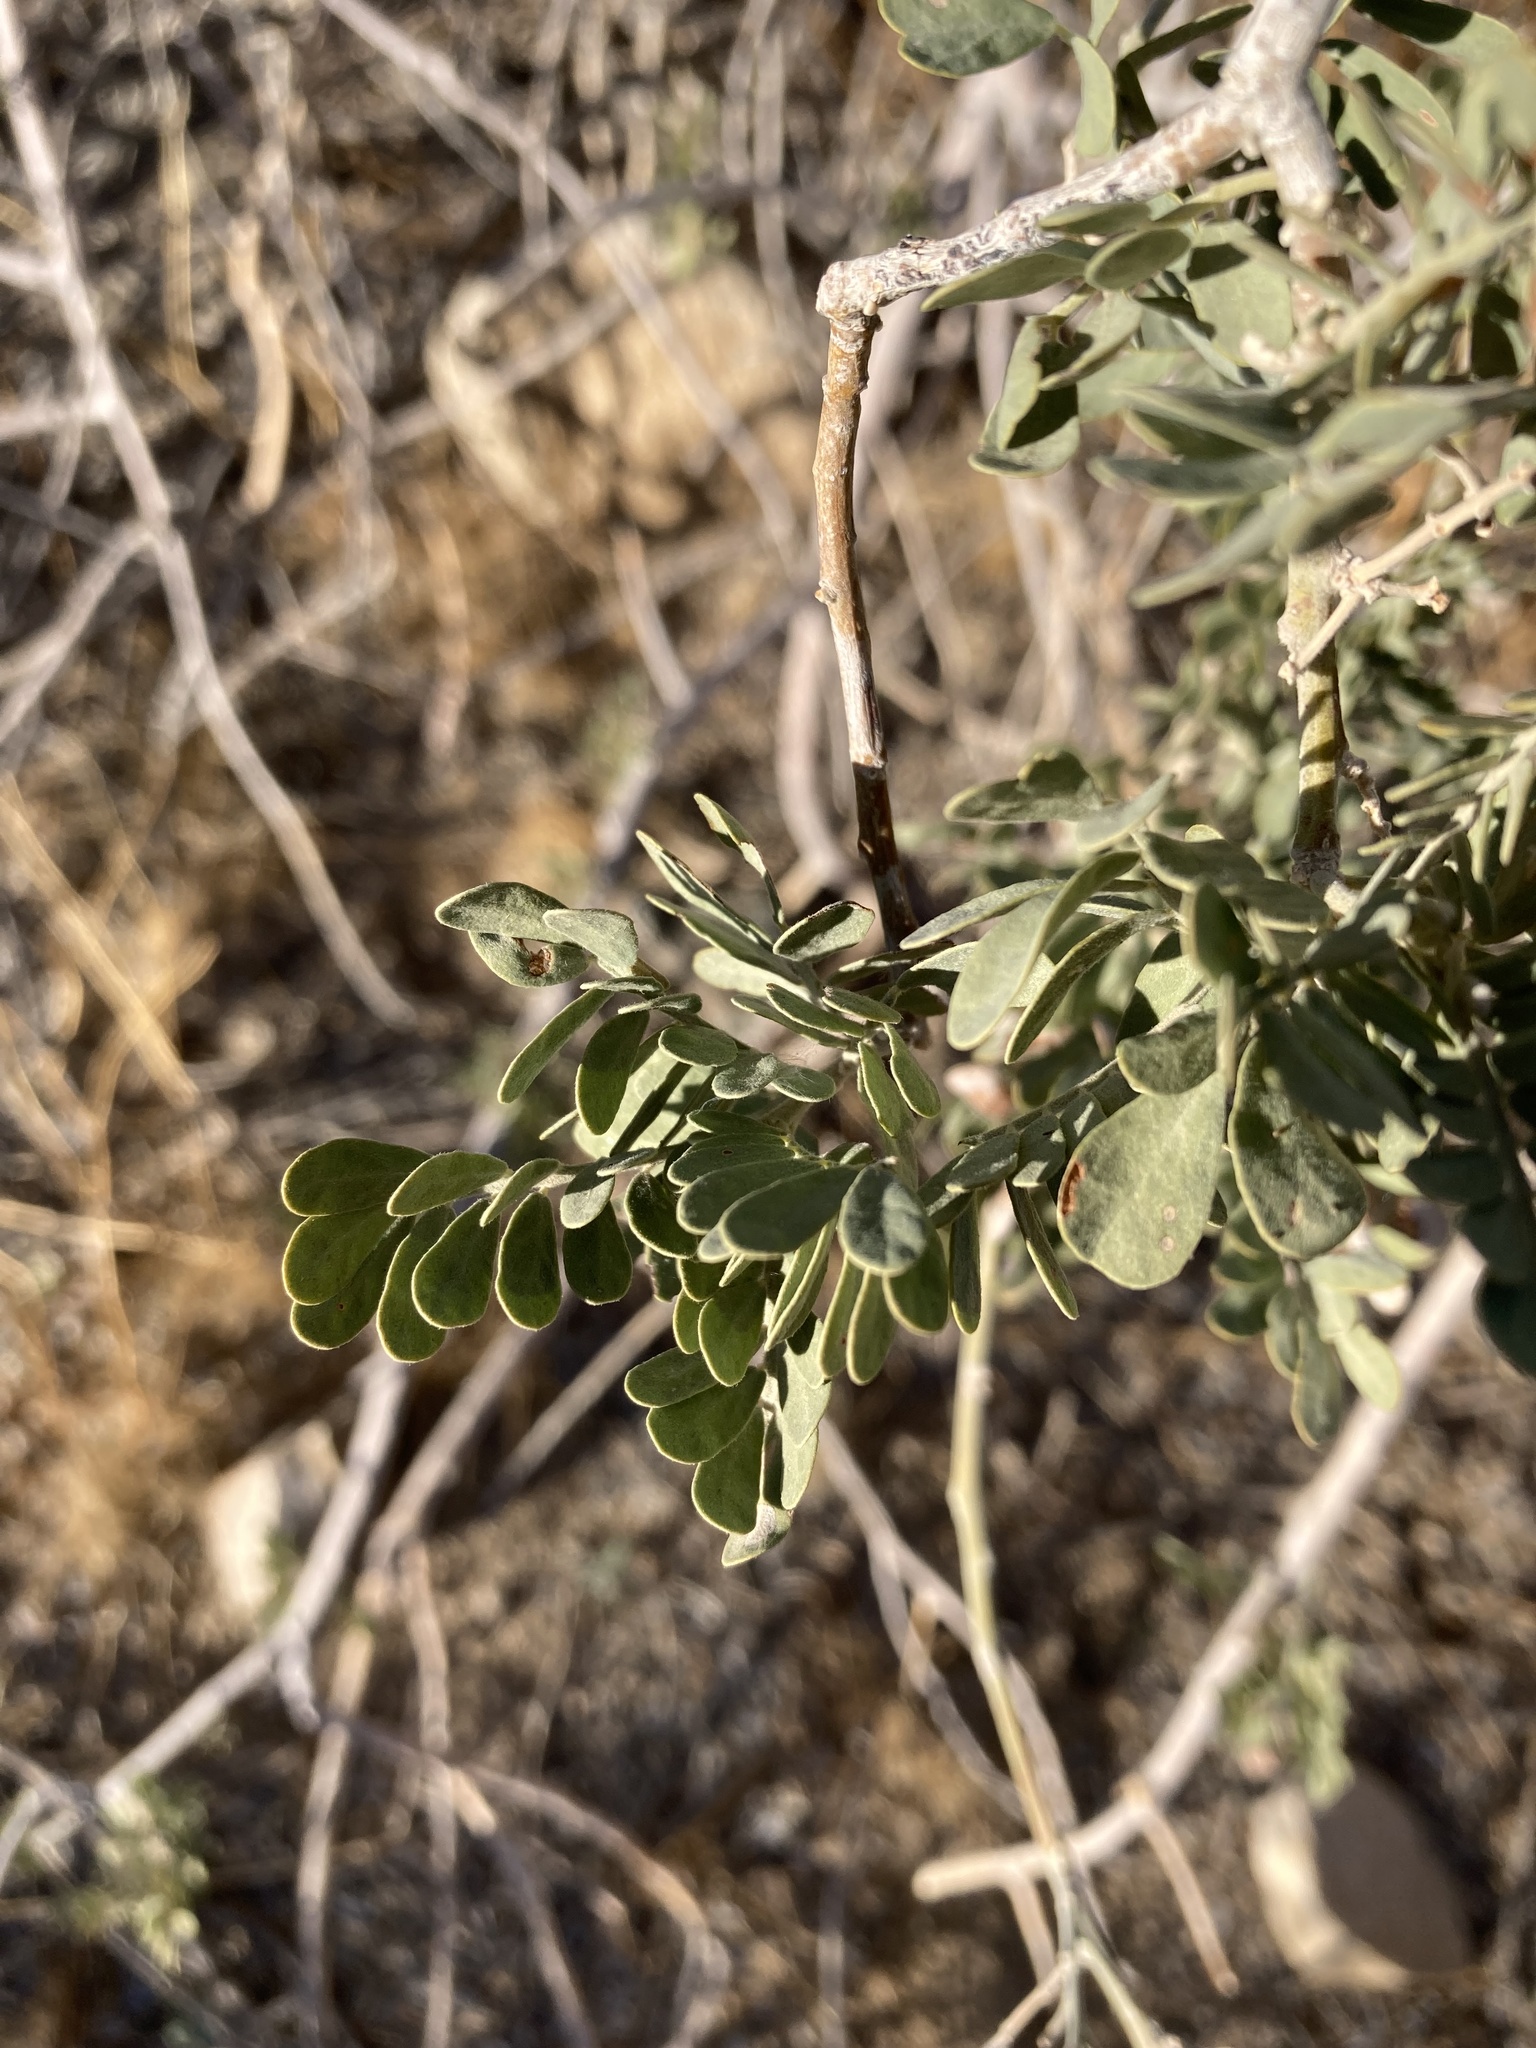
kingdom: Plantae
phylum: Tracheophyta
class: Magnoliopsida
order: Fabales
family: Fabaceae
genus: Olneya
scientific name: Olneya tesota
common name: Desert ironwood
